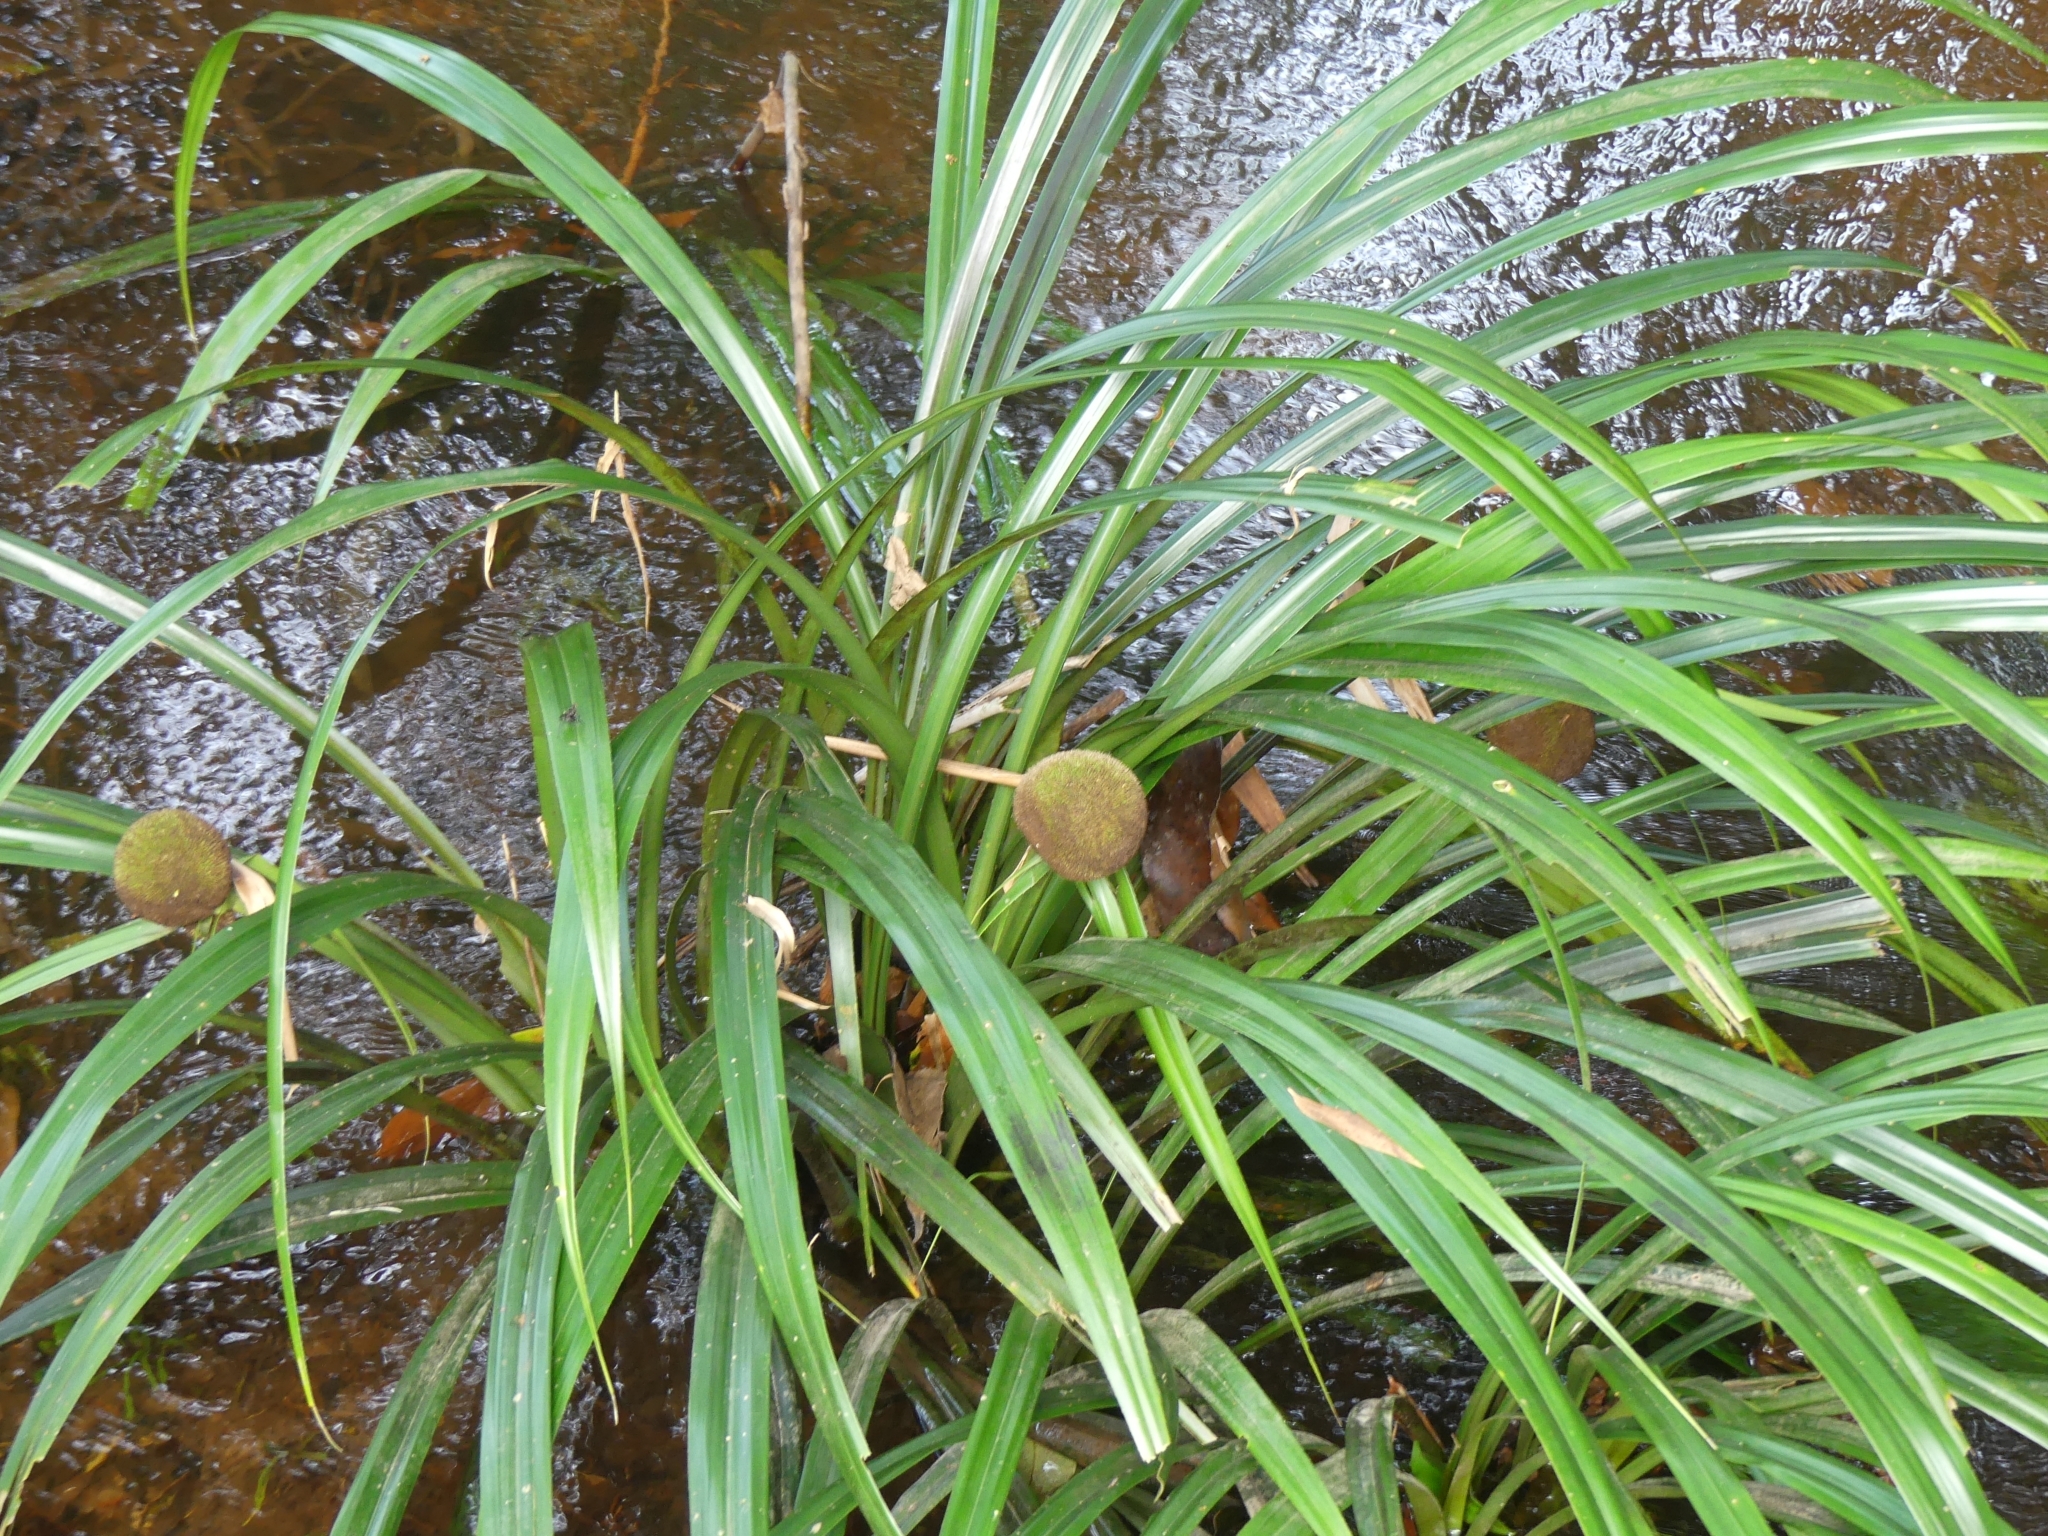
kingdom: Plantae
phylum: Tracheophyta
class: Liliopsida
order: Poales
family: Thurniaceae
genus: Thurnia
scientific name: Thurnia sphaerocephala
